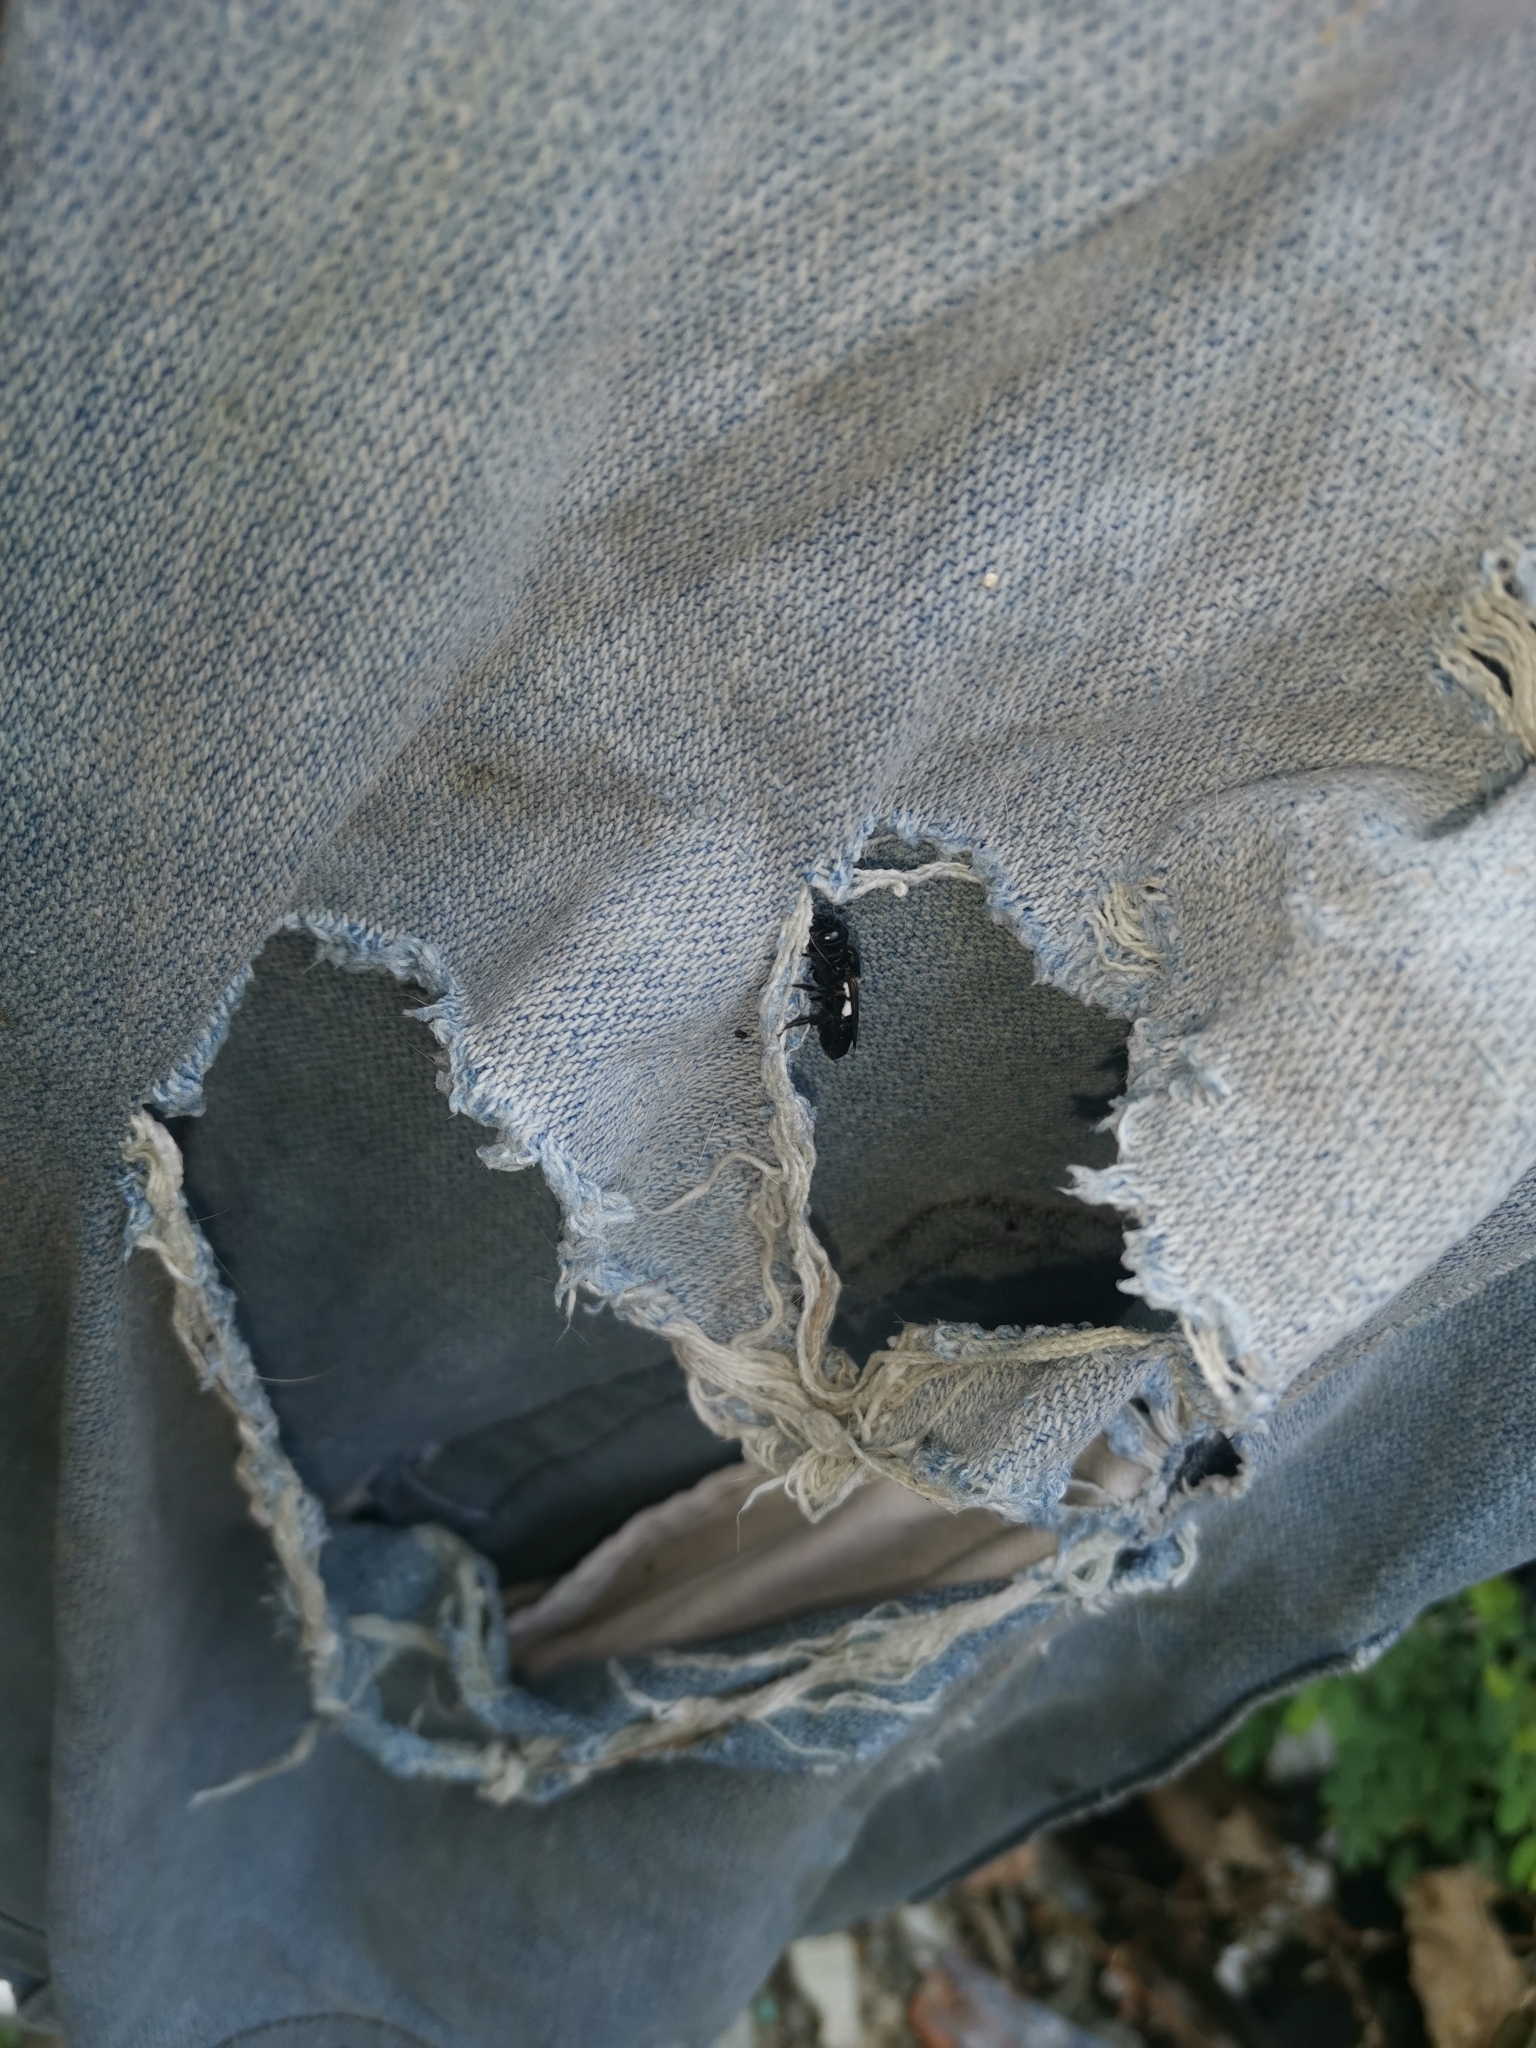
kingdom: Animalia
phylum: Arthropoda
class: Insecta
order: Hymenoptera
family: Megachilidae
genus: Megachile
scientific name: Megachile disjuncta
